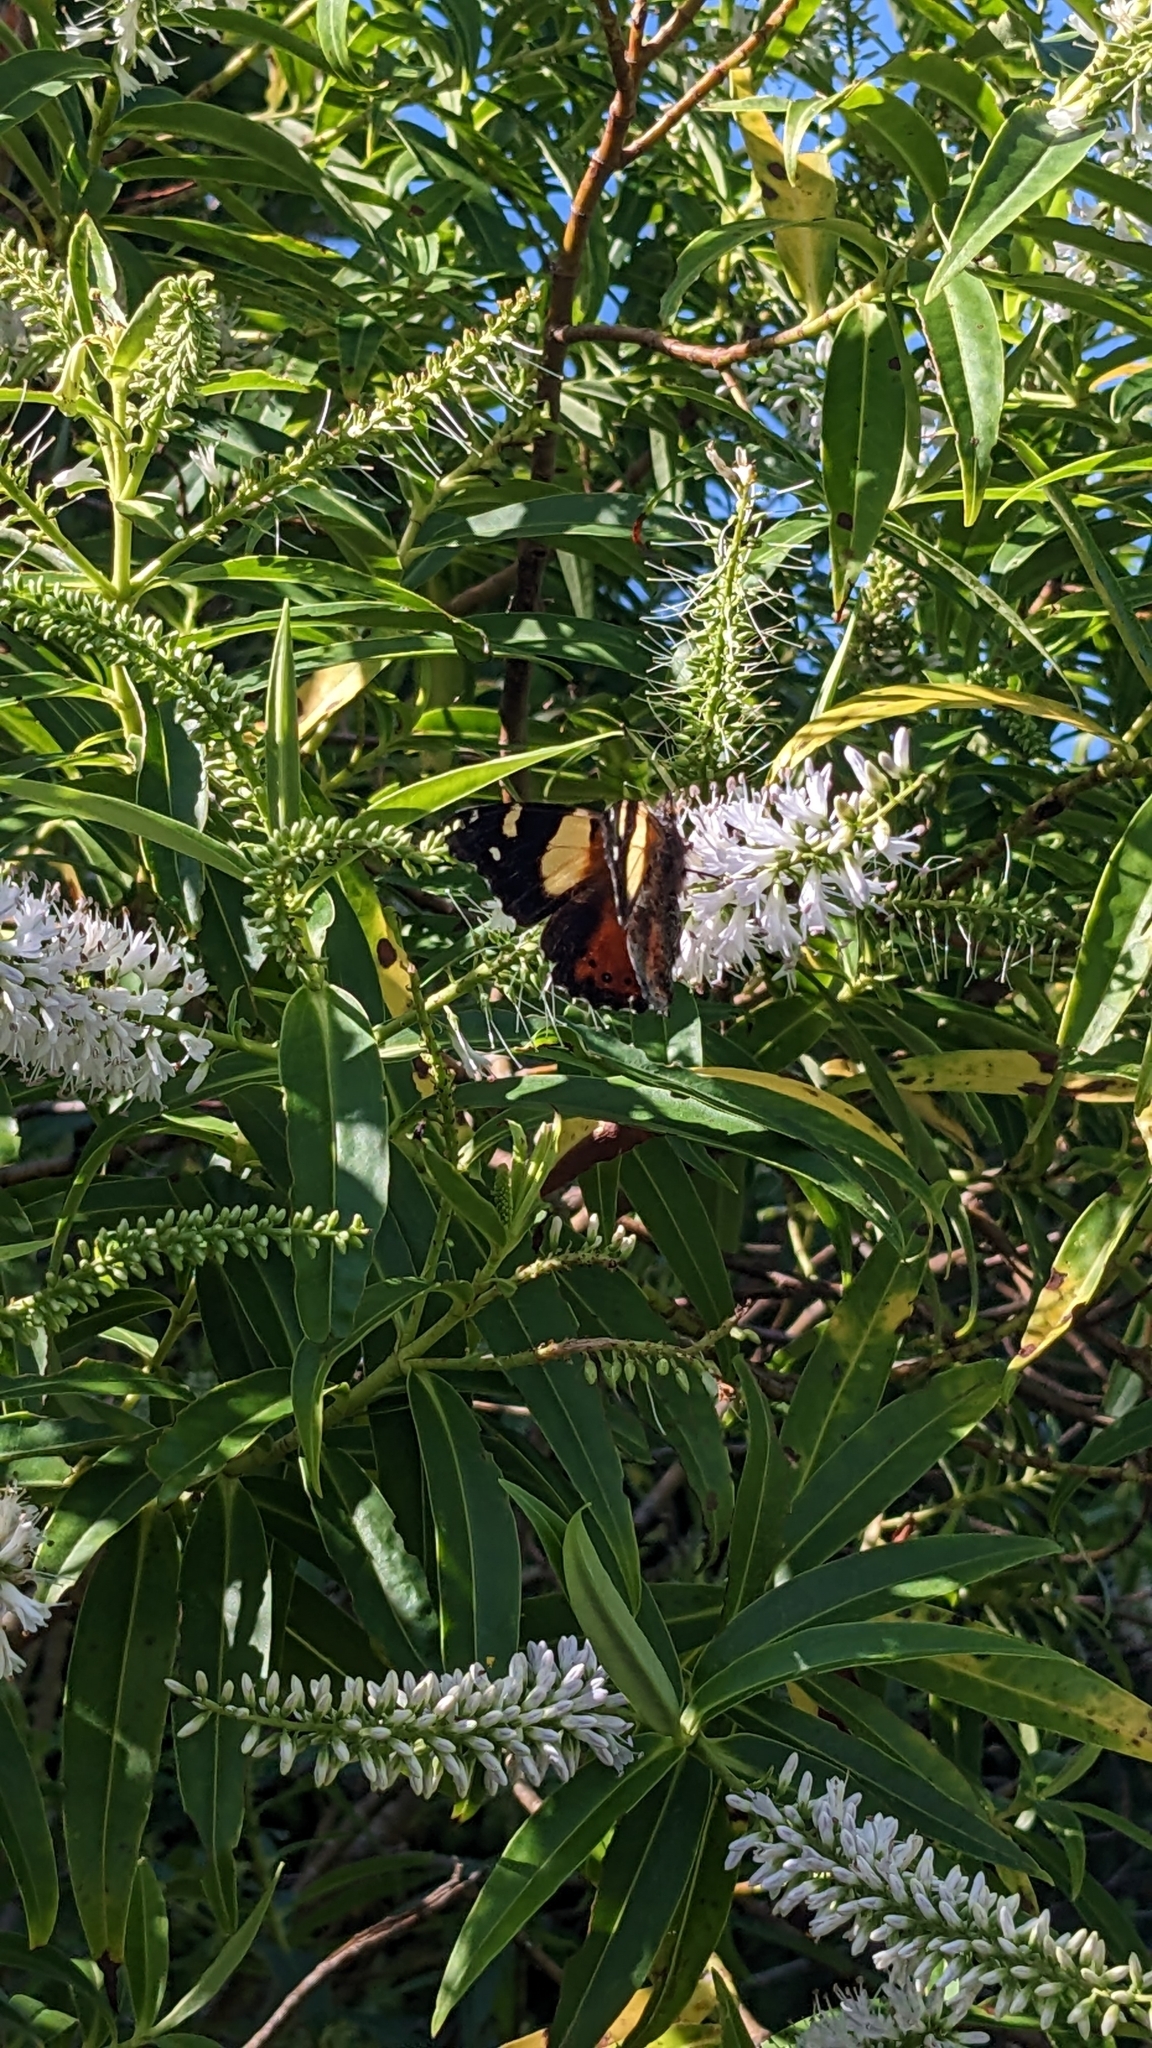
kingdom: Animalia
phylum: Arthropoda
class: Insecta
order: Lepidoptera
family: Nymphalidae
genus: Vanessa
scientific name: Vanessa itea
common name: Yellow admiral
